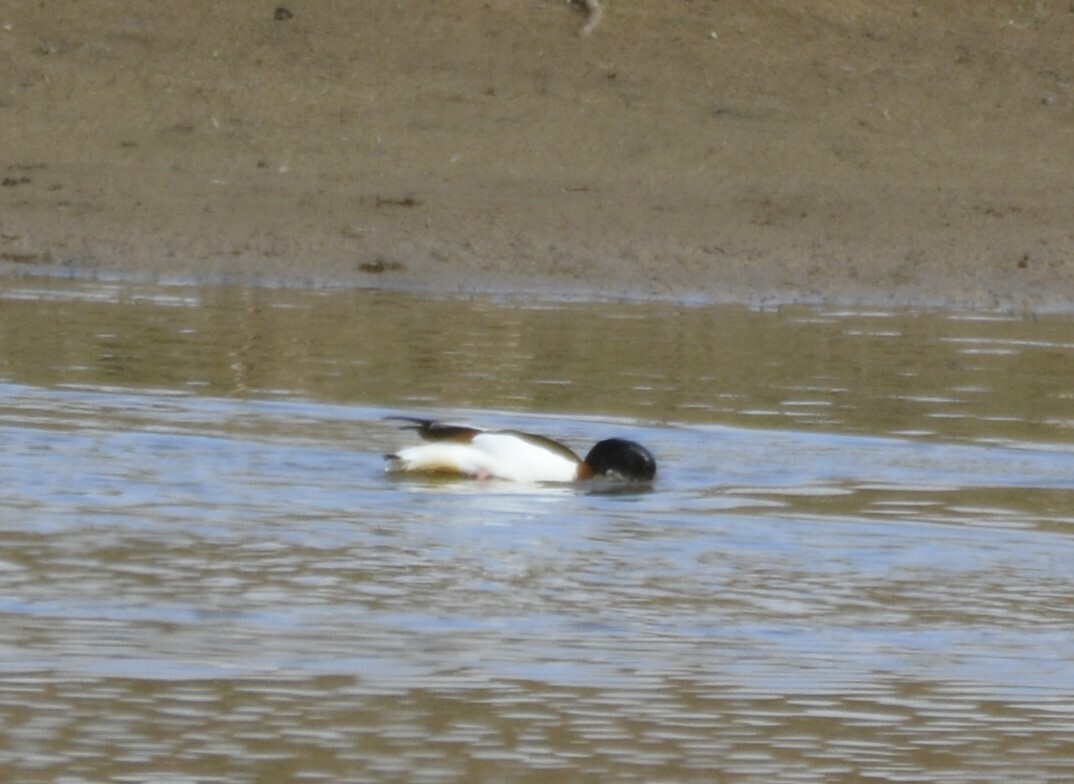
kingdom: Animalia
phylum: Chordata
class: Aves
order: Anseriformes
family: Anatidae
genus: Tadorna
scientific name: Tadorna tadorna
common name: Common shelduck
